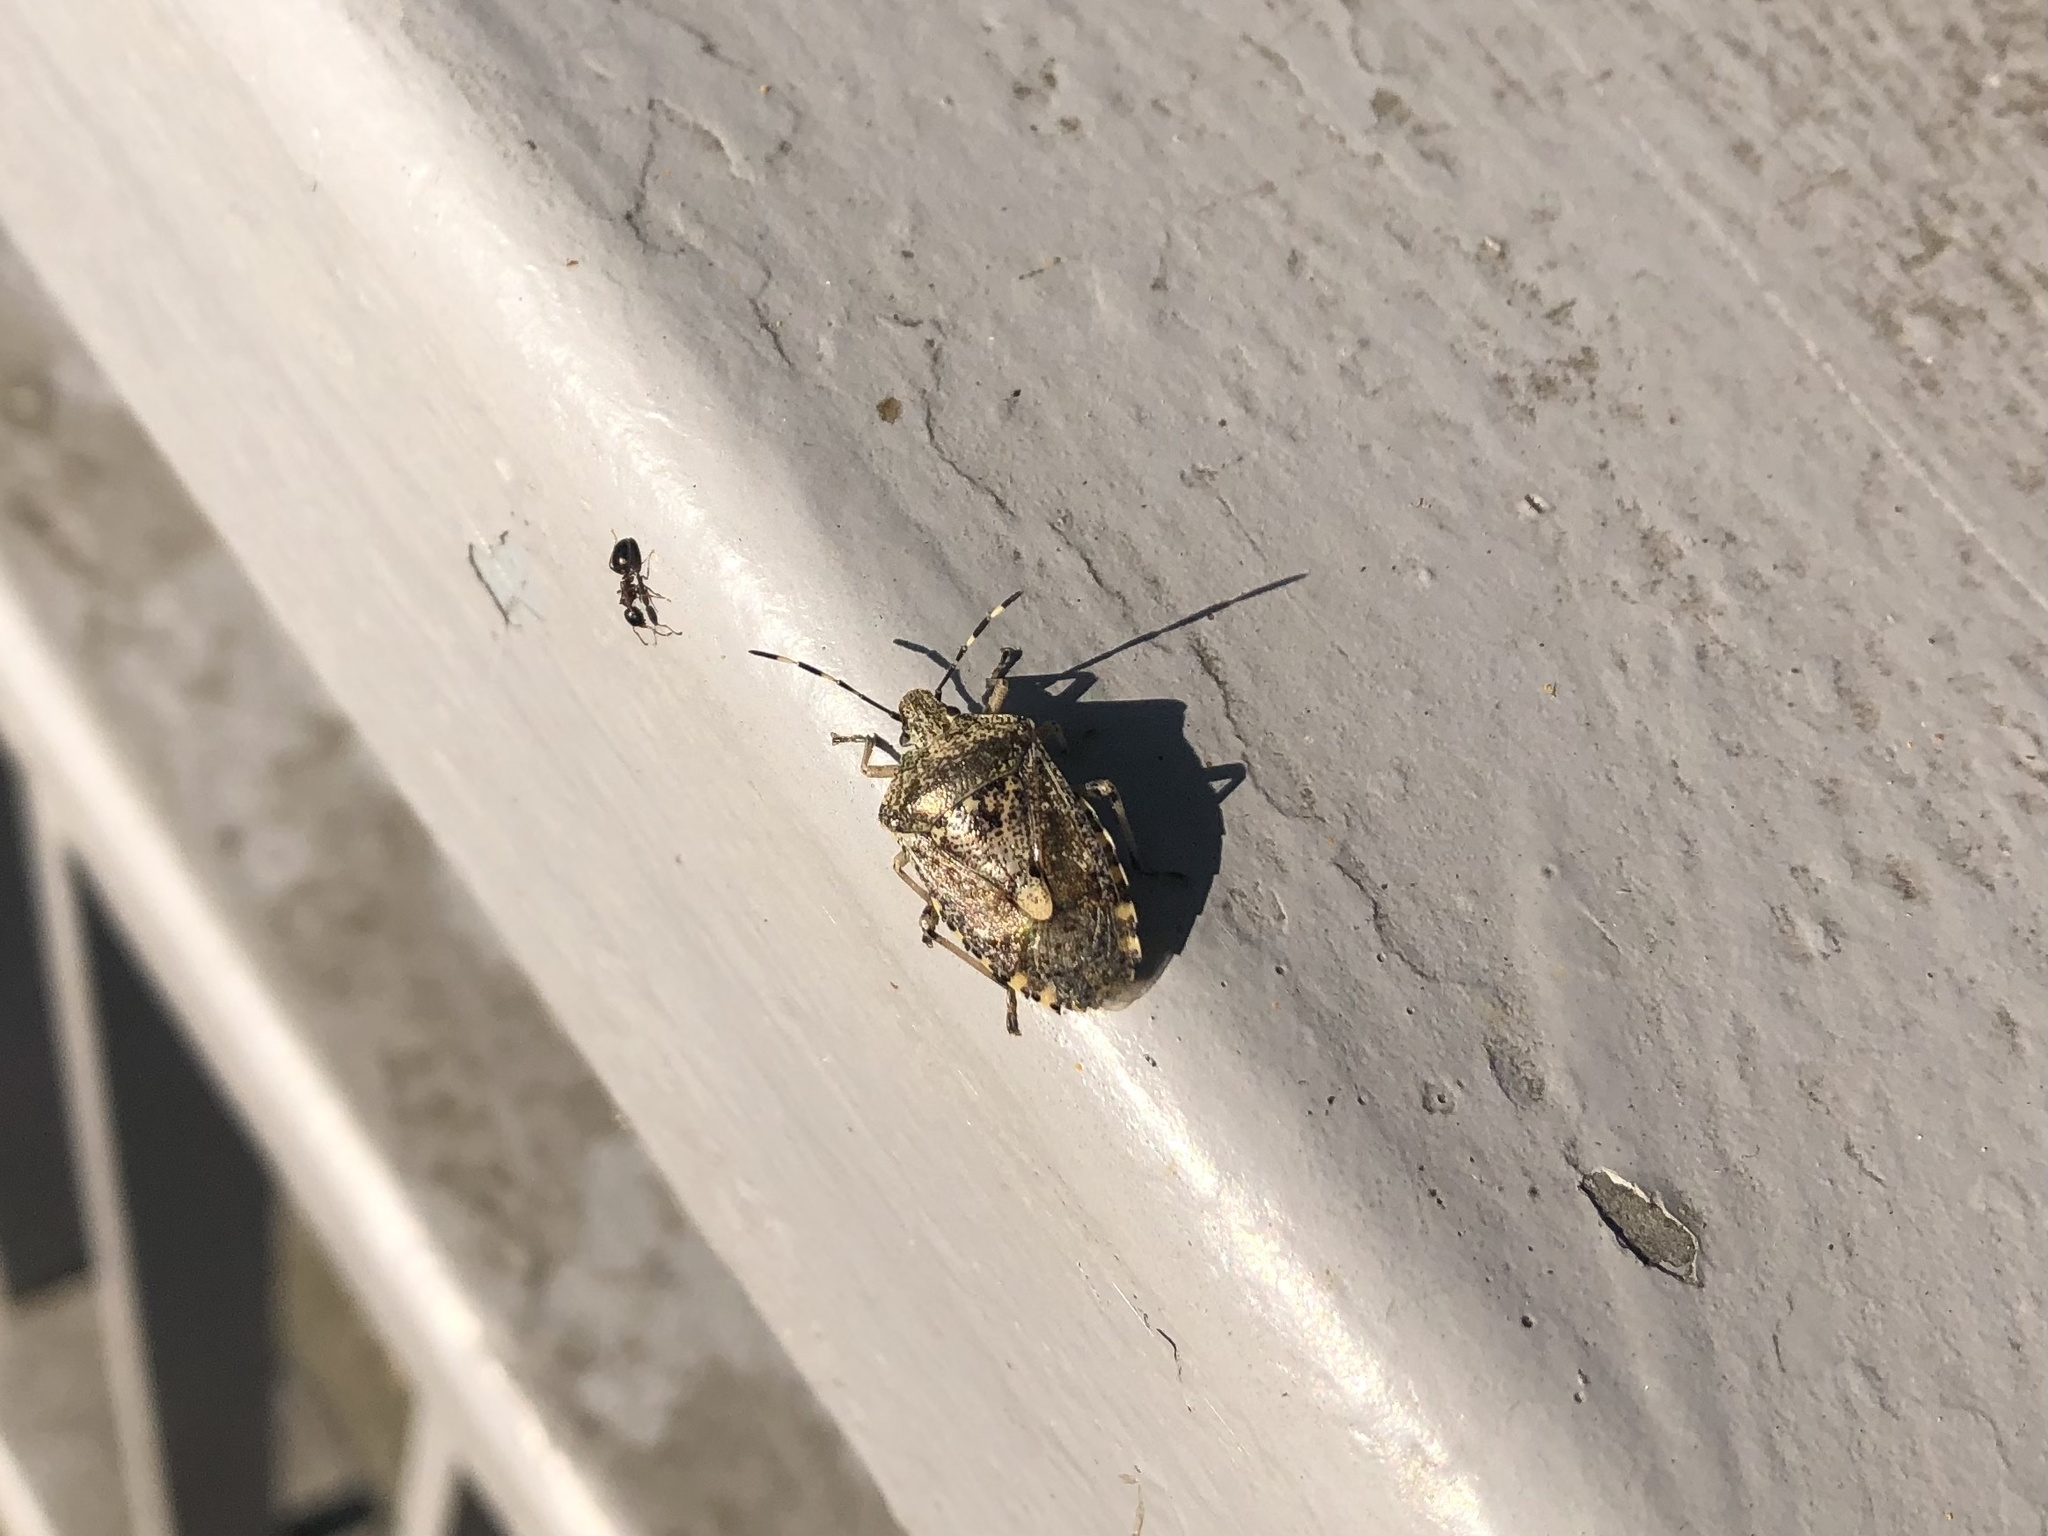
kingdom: Animalia
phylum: Arthropoda
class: Insecta
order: Hemiptera
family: Pentatomidae
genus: Rhaphigaster
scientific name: Rhaphigaster nebulosa
